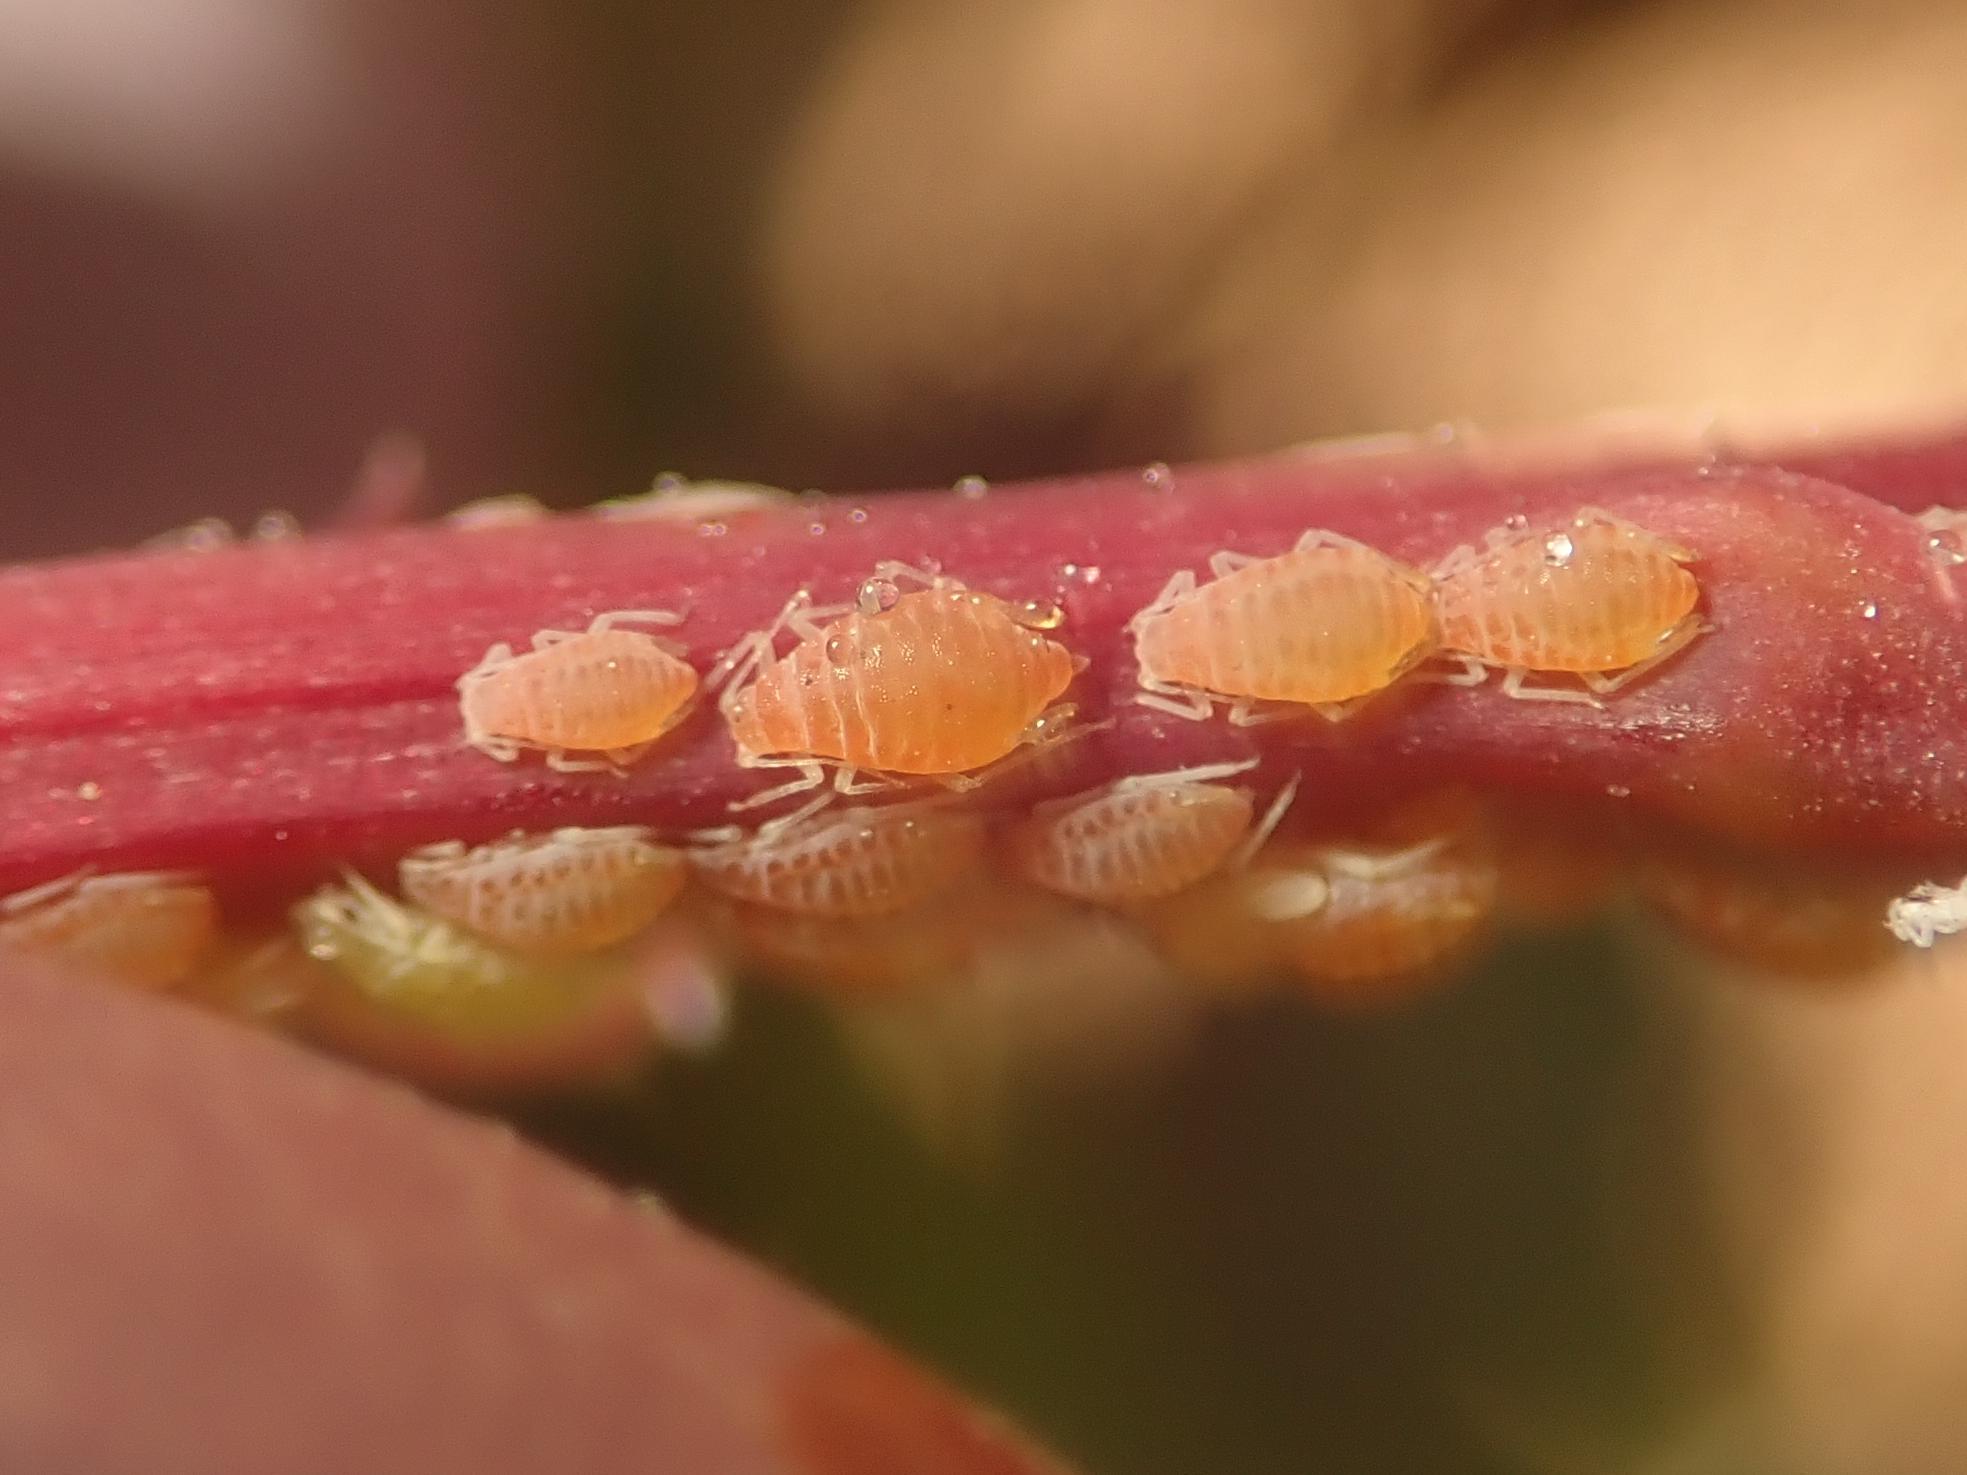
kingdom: Animalia
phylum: Arthropoda
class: Insecta
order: Hemiptera
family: Aphididae
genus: Liosomaphis
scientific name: Liosomaphis berberidis
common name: Barberry aphid
